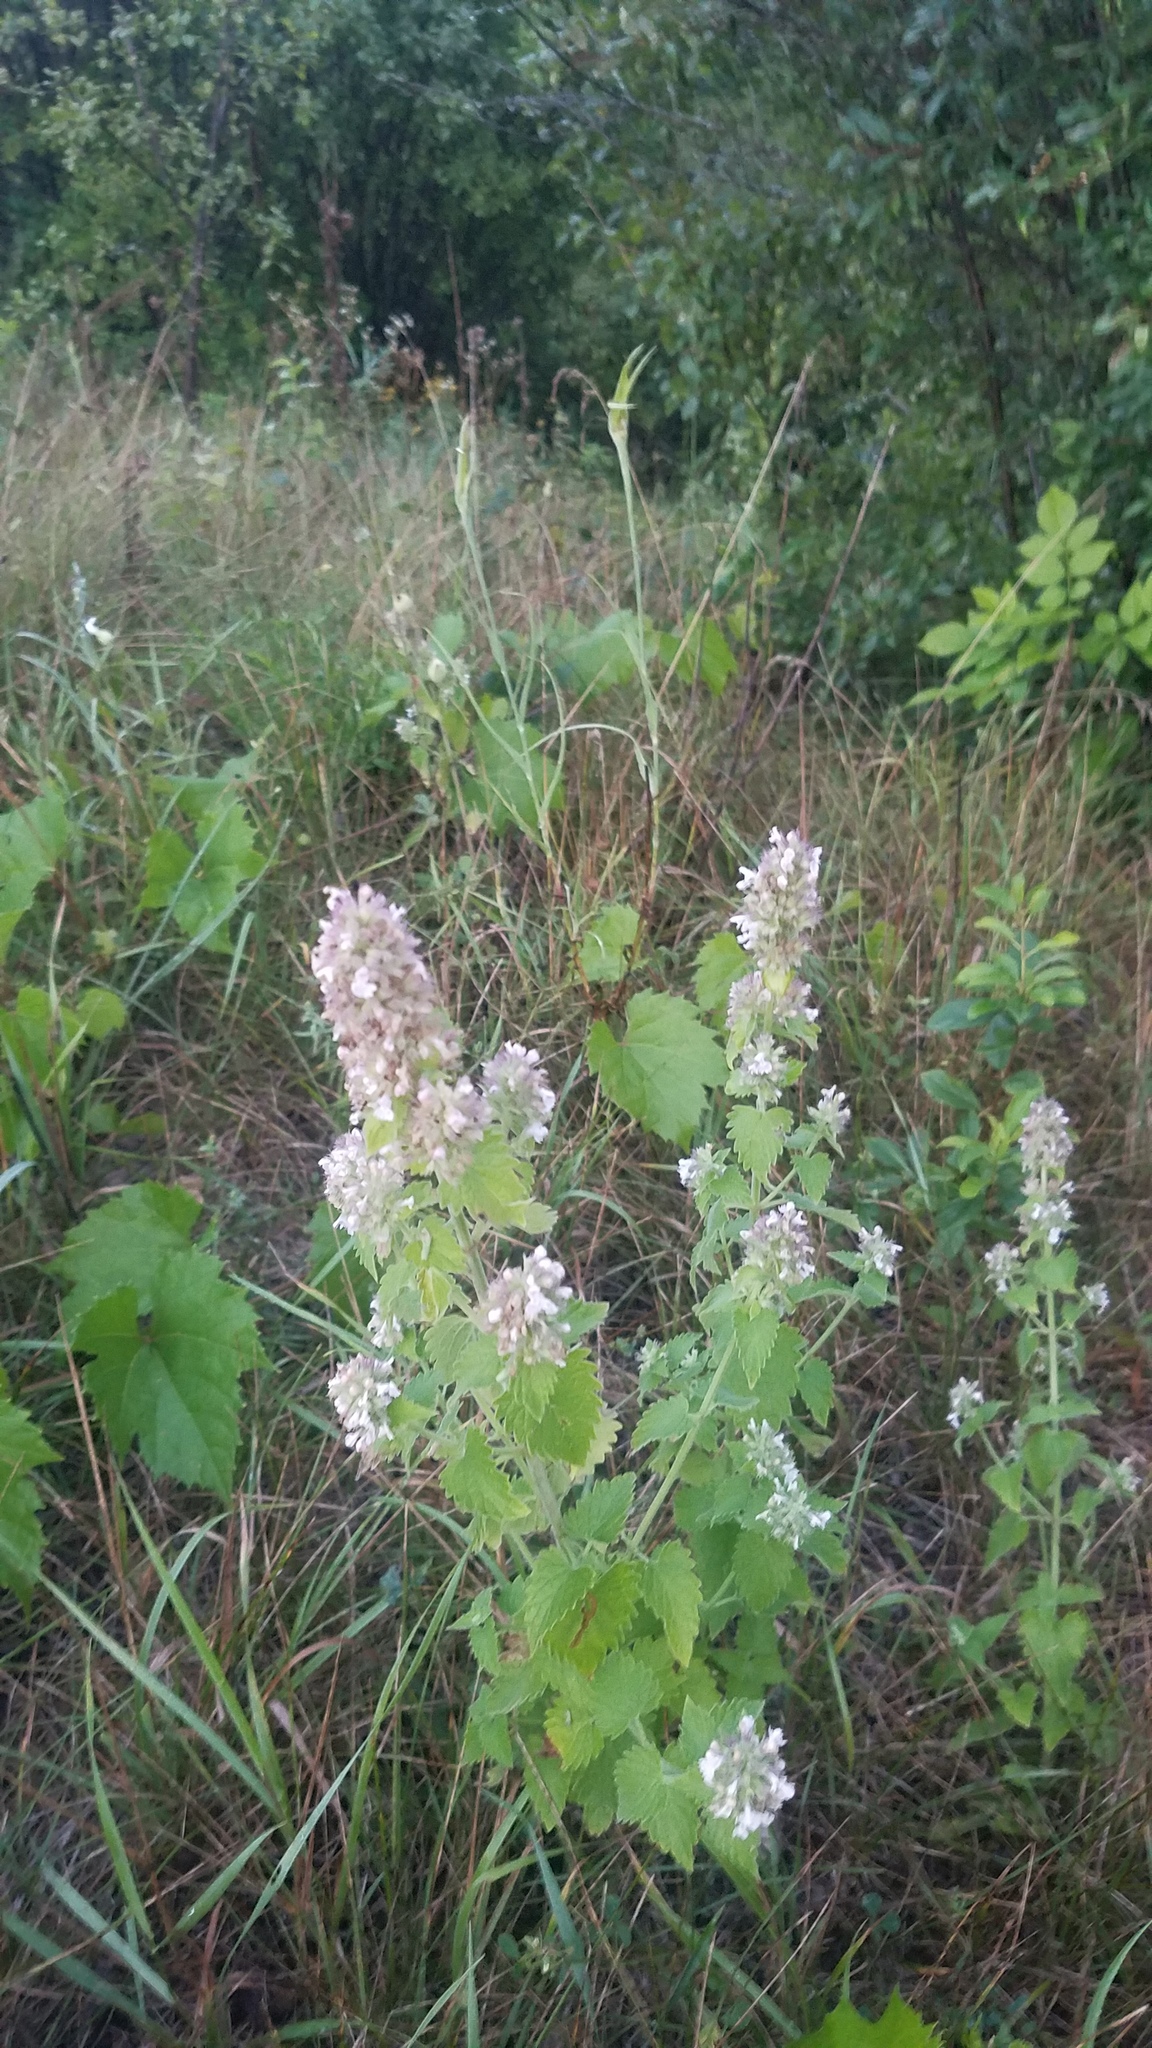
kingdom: Plantae
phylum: Tracheophyta
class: Magnoliopsida
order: Lamiales
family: Lamiaceae
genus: Nepeta
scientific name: Nepeta cataria
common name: Catnip
